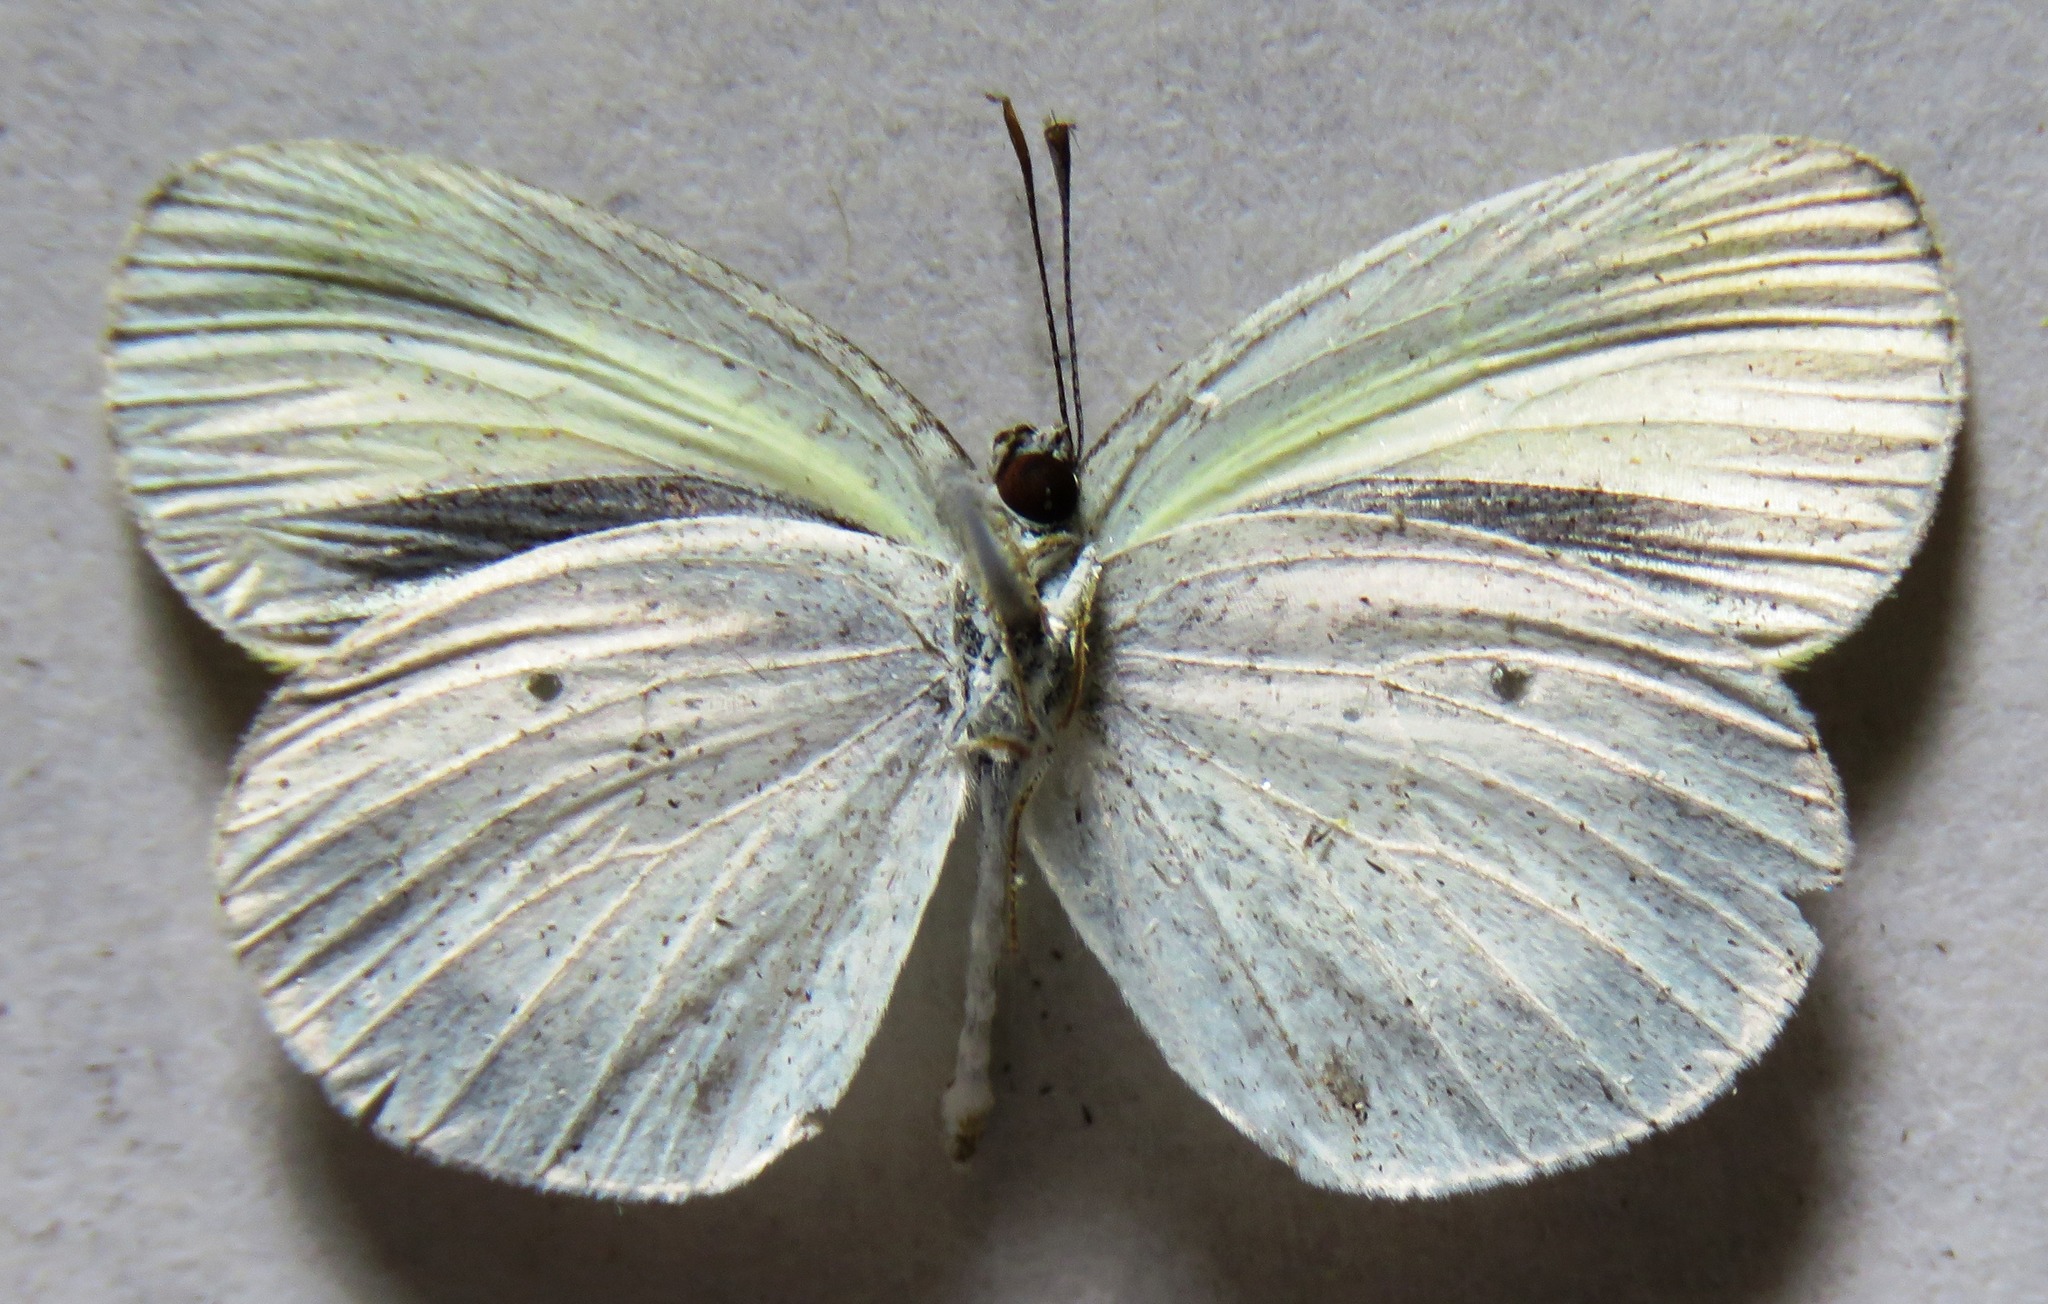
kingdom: Animalia
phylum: Arthropoda
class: Insecta
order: Lepidoptera
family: Pieridae
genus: Eurema
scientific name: Eurema daira
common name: Barred sulphur
